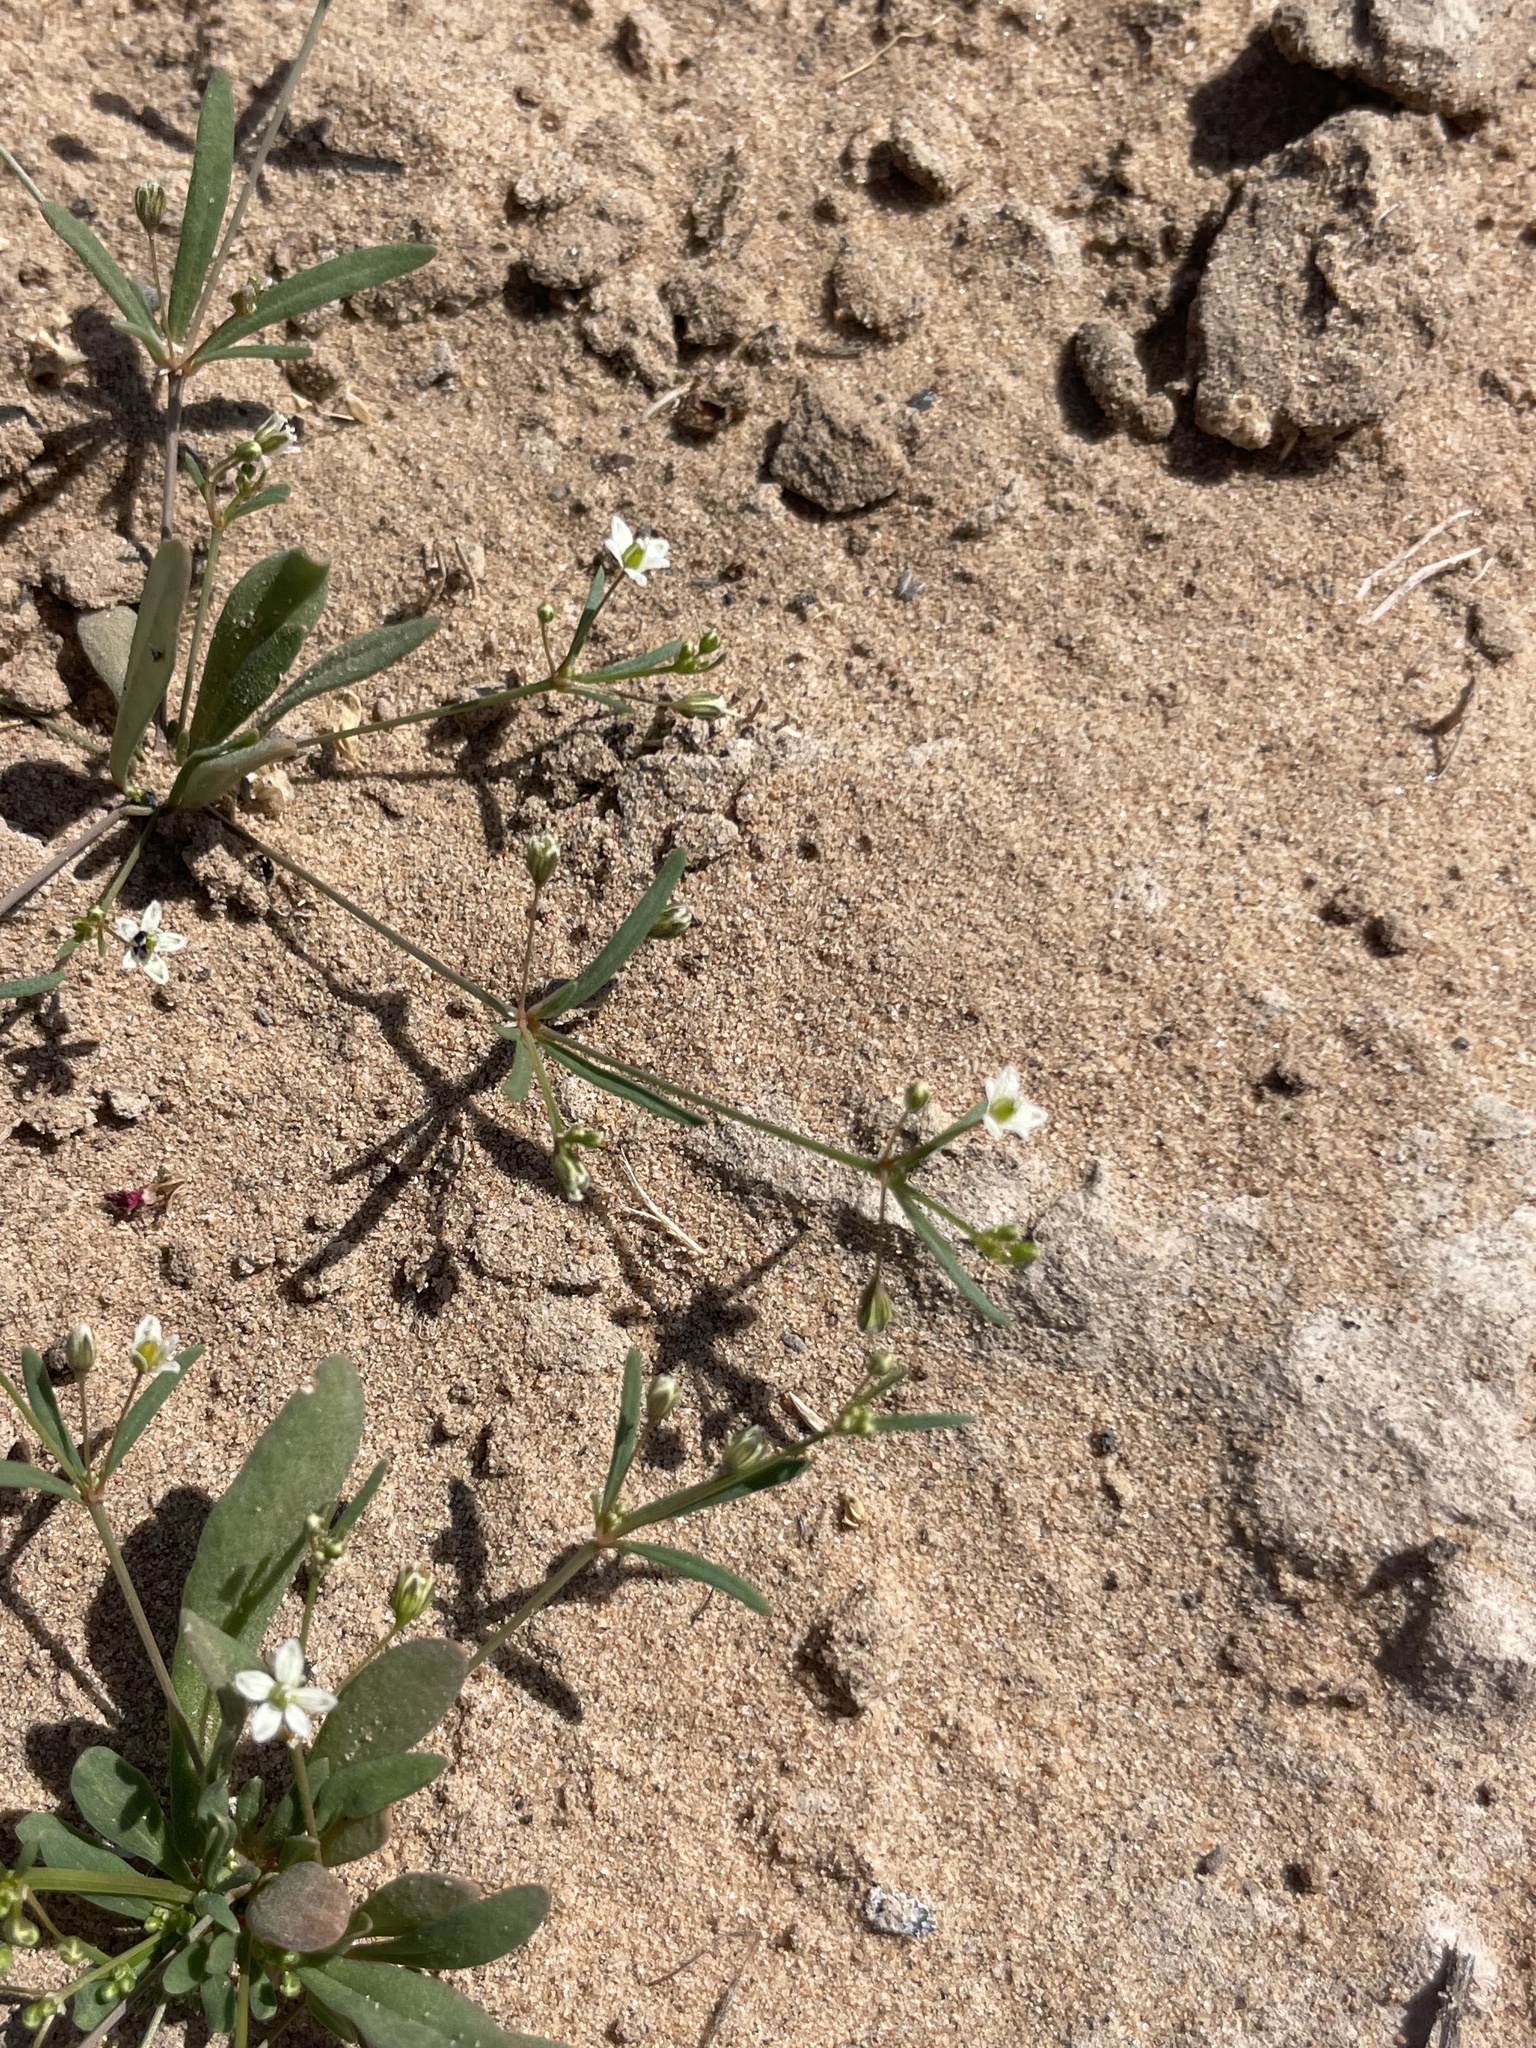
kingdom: Plantae
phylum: Tracheophyta
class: Magnoliopsida
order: Caryophyllales
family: Molluginaceae
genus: Mollugo
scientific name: Mollugo verticillata
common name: Green carpetweed
